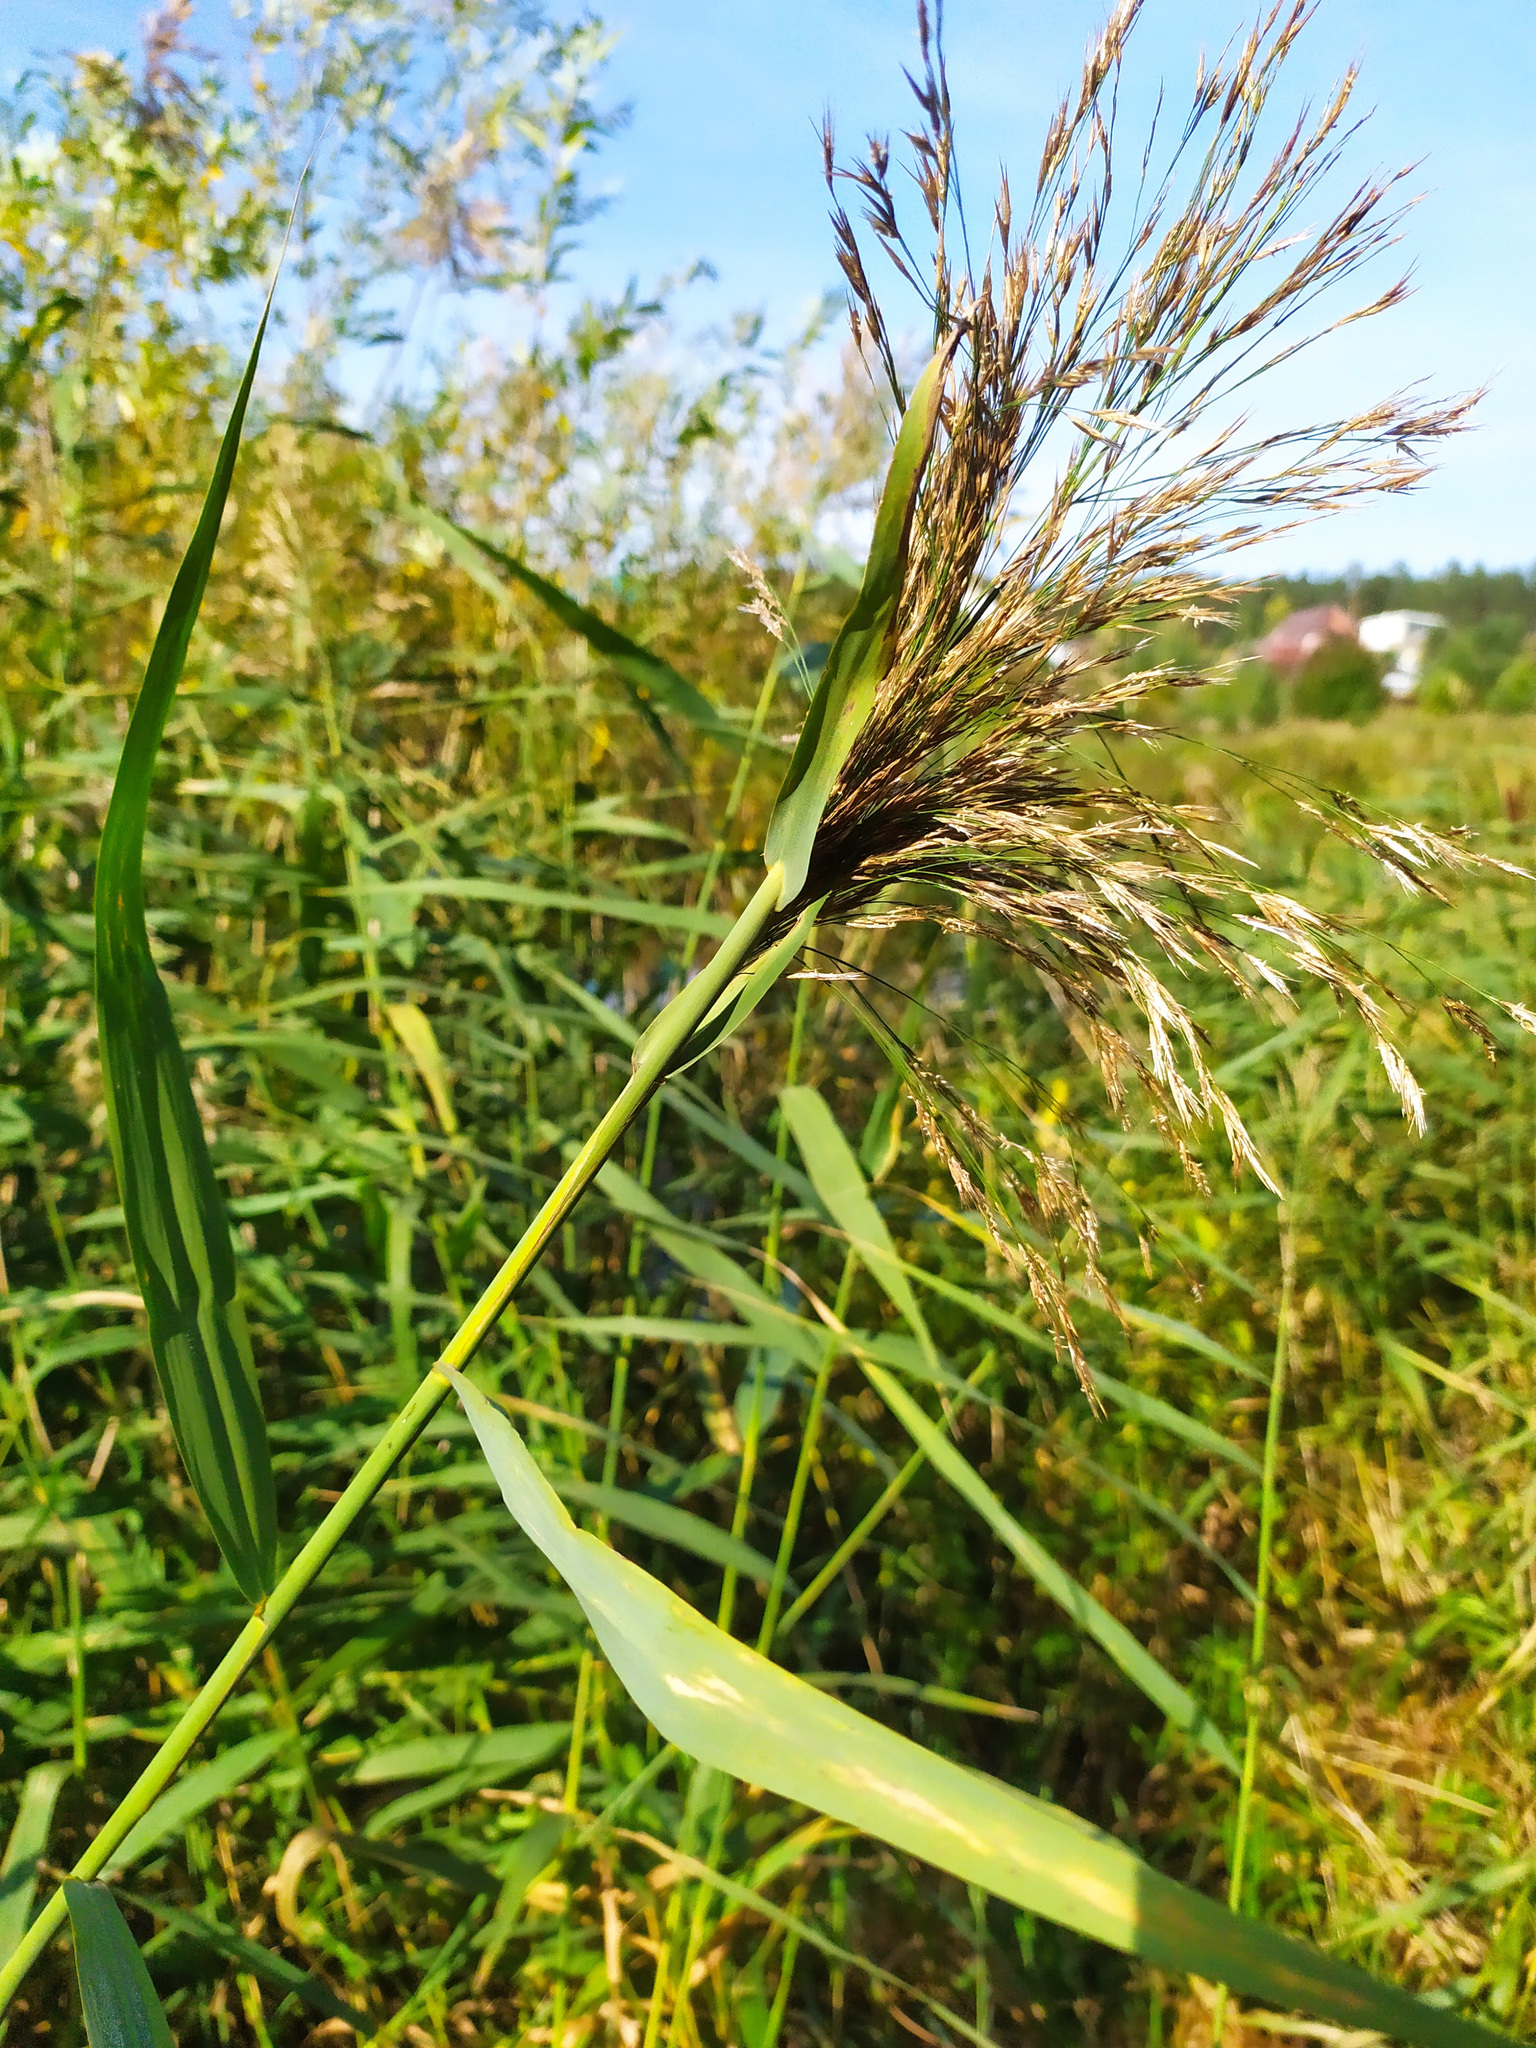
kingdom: Plantae
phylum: Tracheophyta
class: Liliopsida
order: Poales
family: Poaceae
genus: Phragmites
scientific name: Phragmites australis
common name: Common reed
